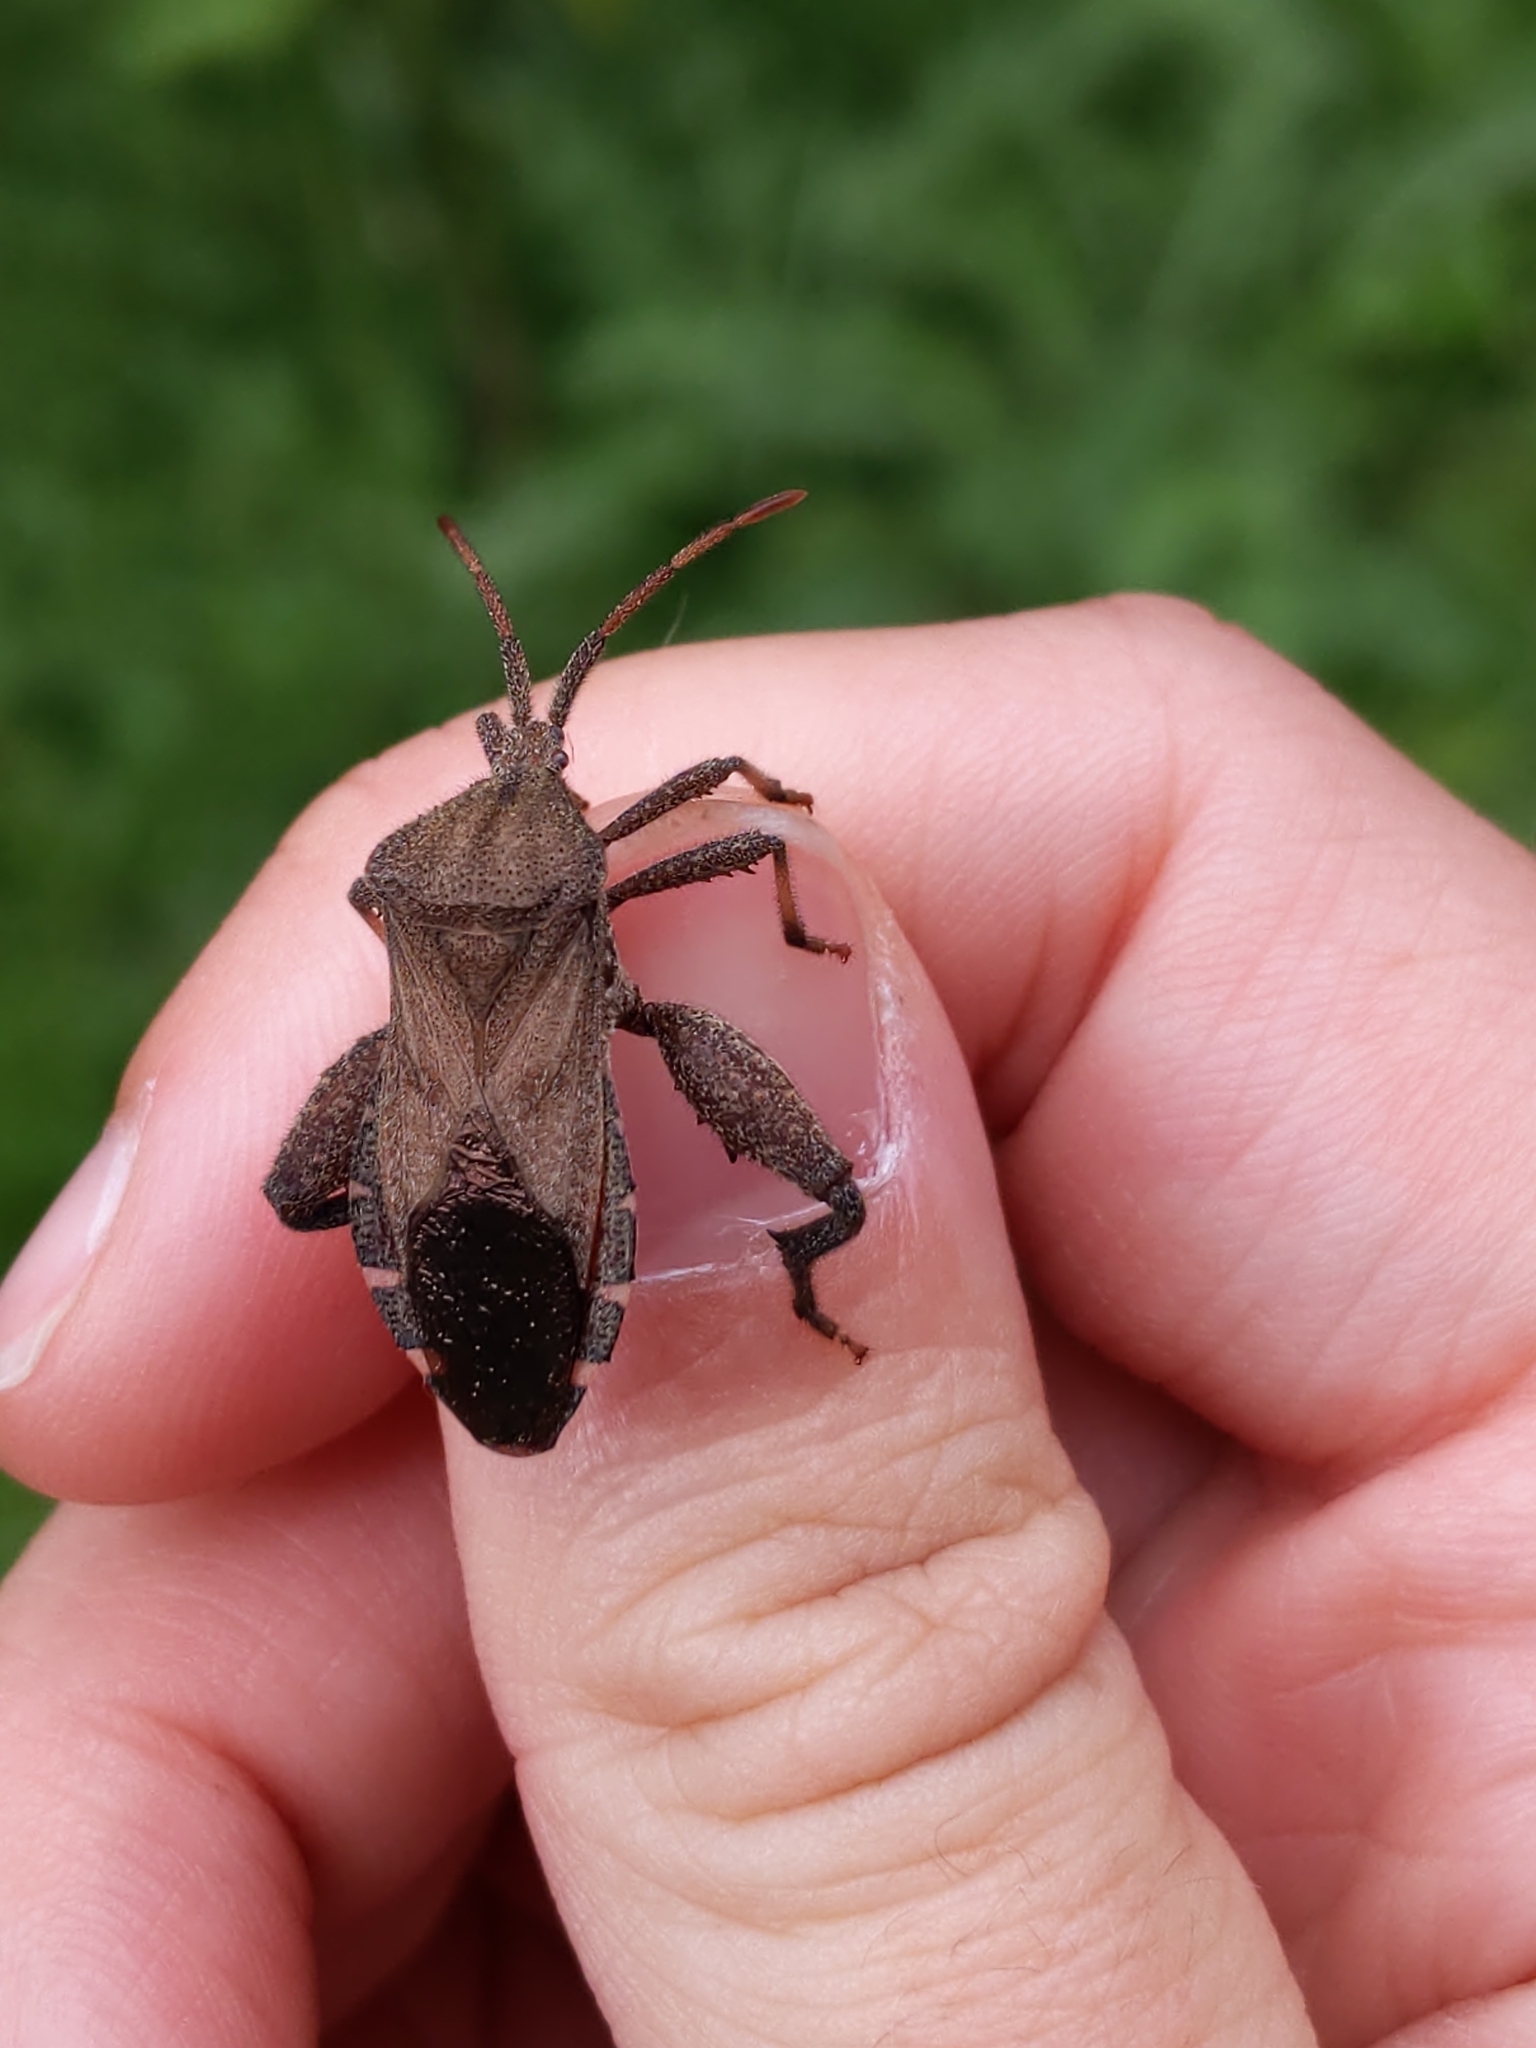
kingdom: Animalia
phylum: Arthropoda
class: Insecta
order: Hemiptera
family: Coreidae
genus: Piezogaster
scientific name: Piezogaster calcarator
